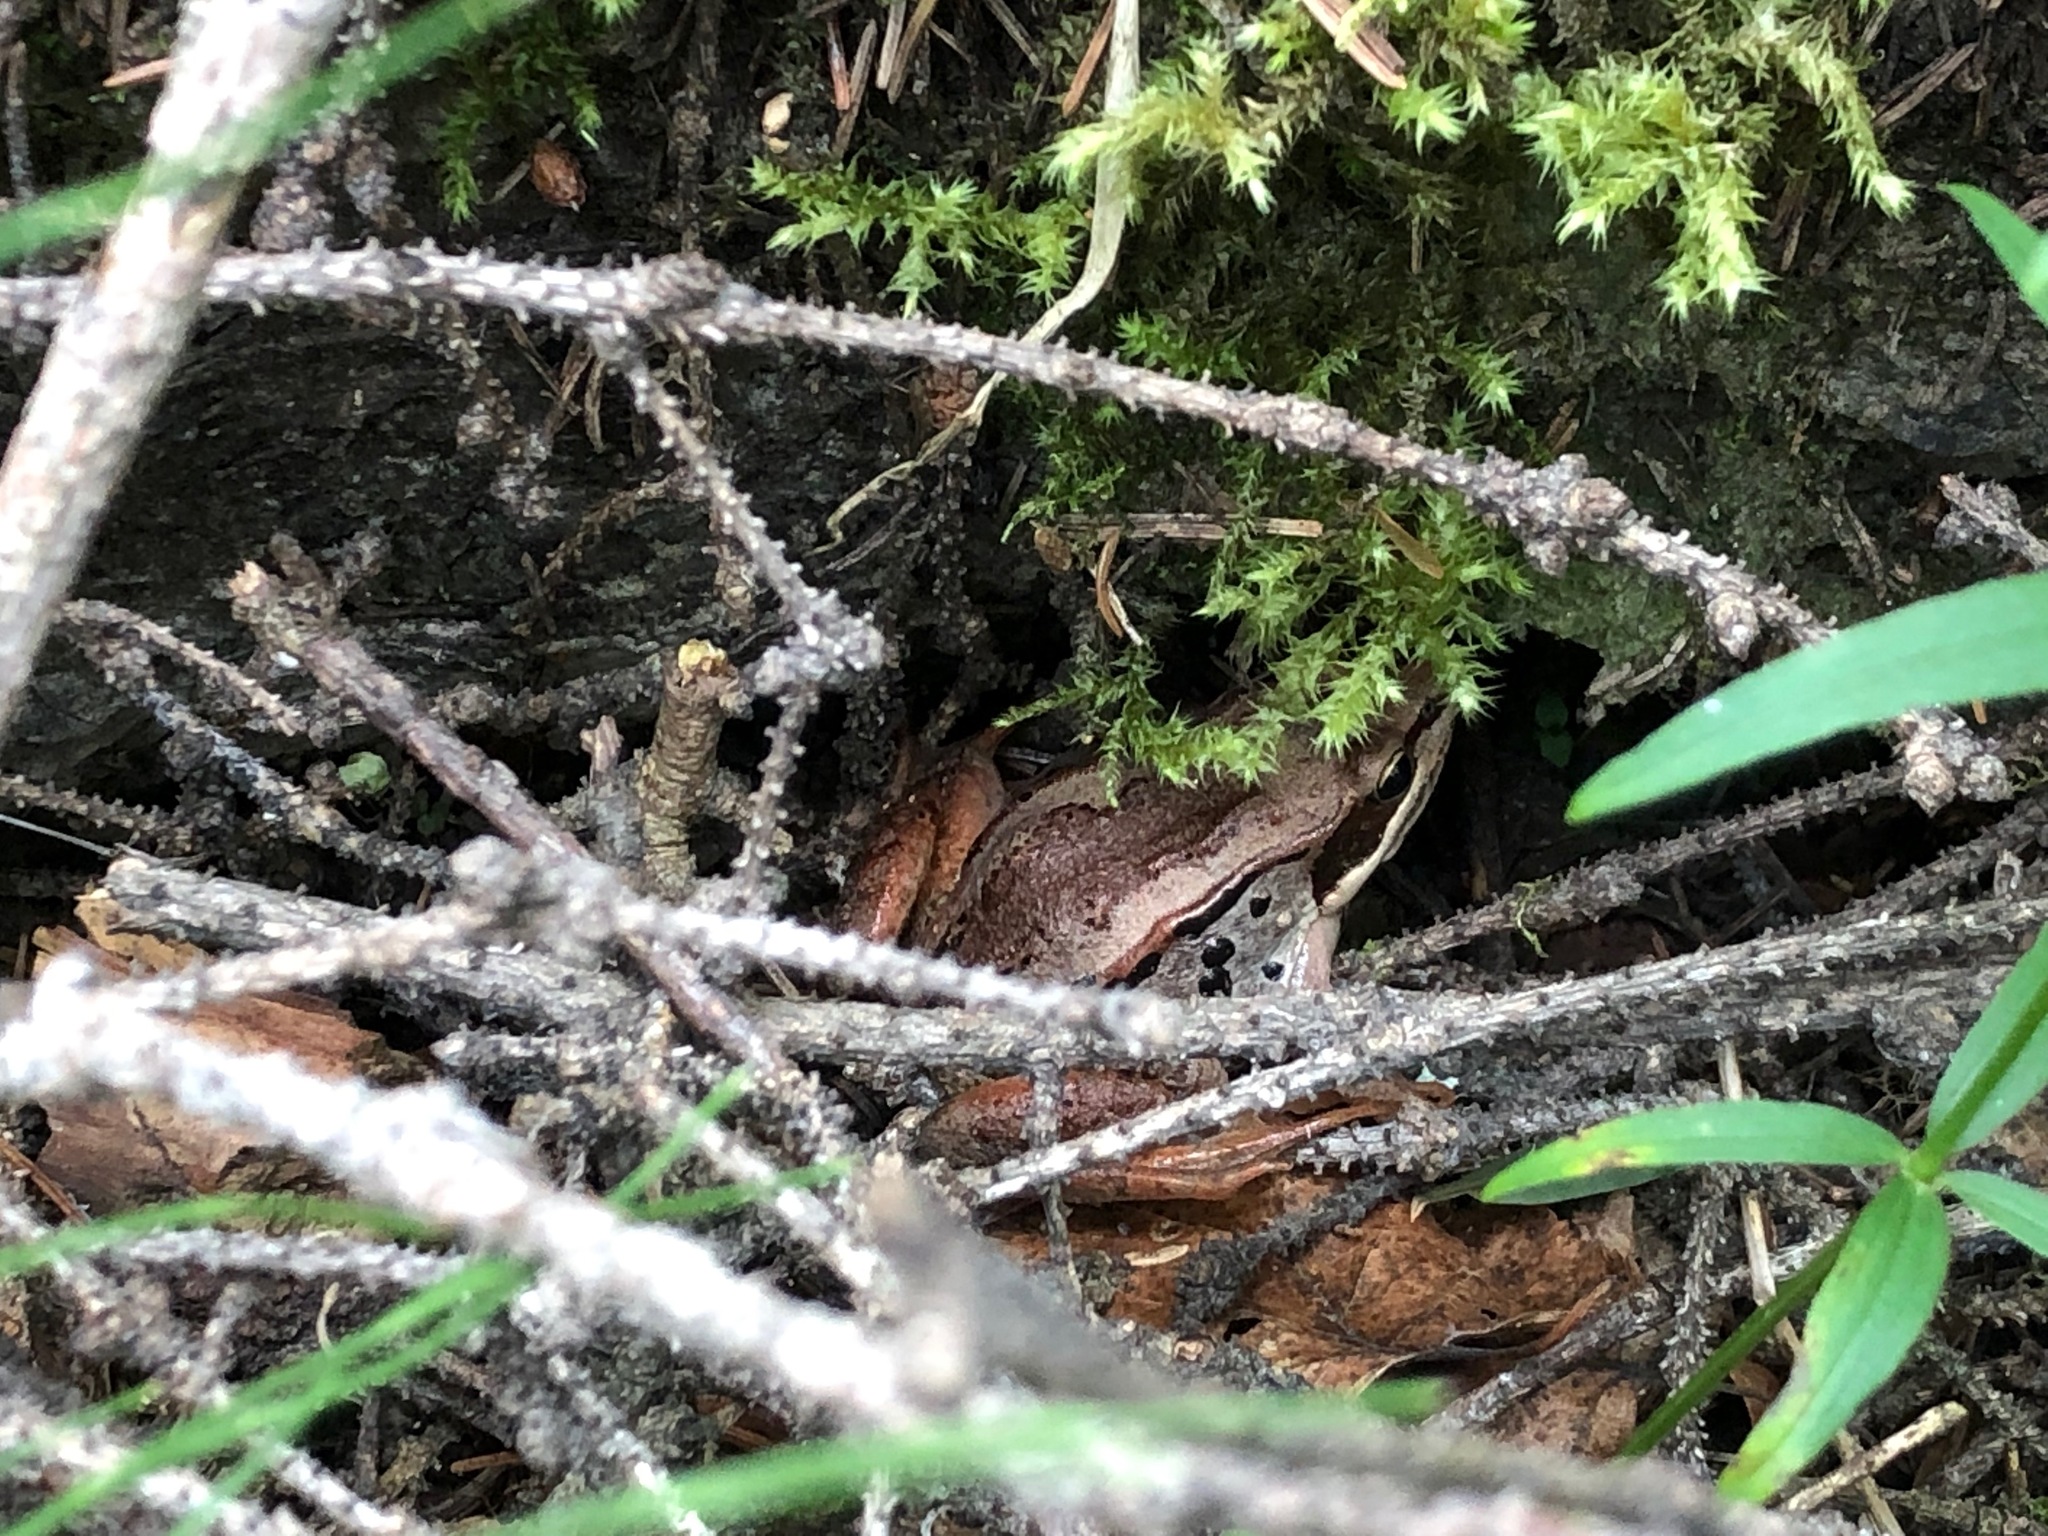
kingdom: Animalia
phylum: Chordata
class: Amphibia
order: Anura
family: Ranidae
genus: Lithobates
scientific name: Lithobates sylvaticus
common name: Wood frog
